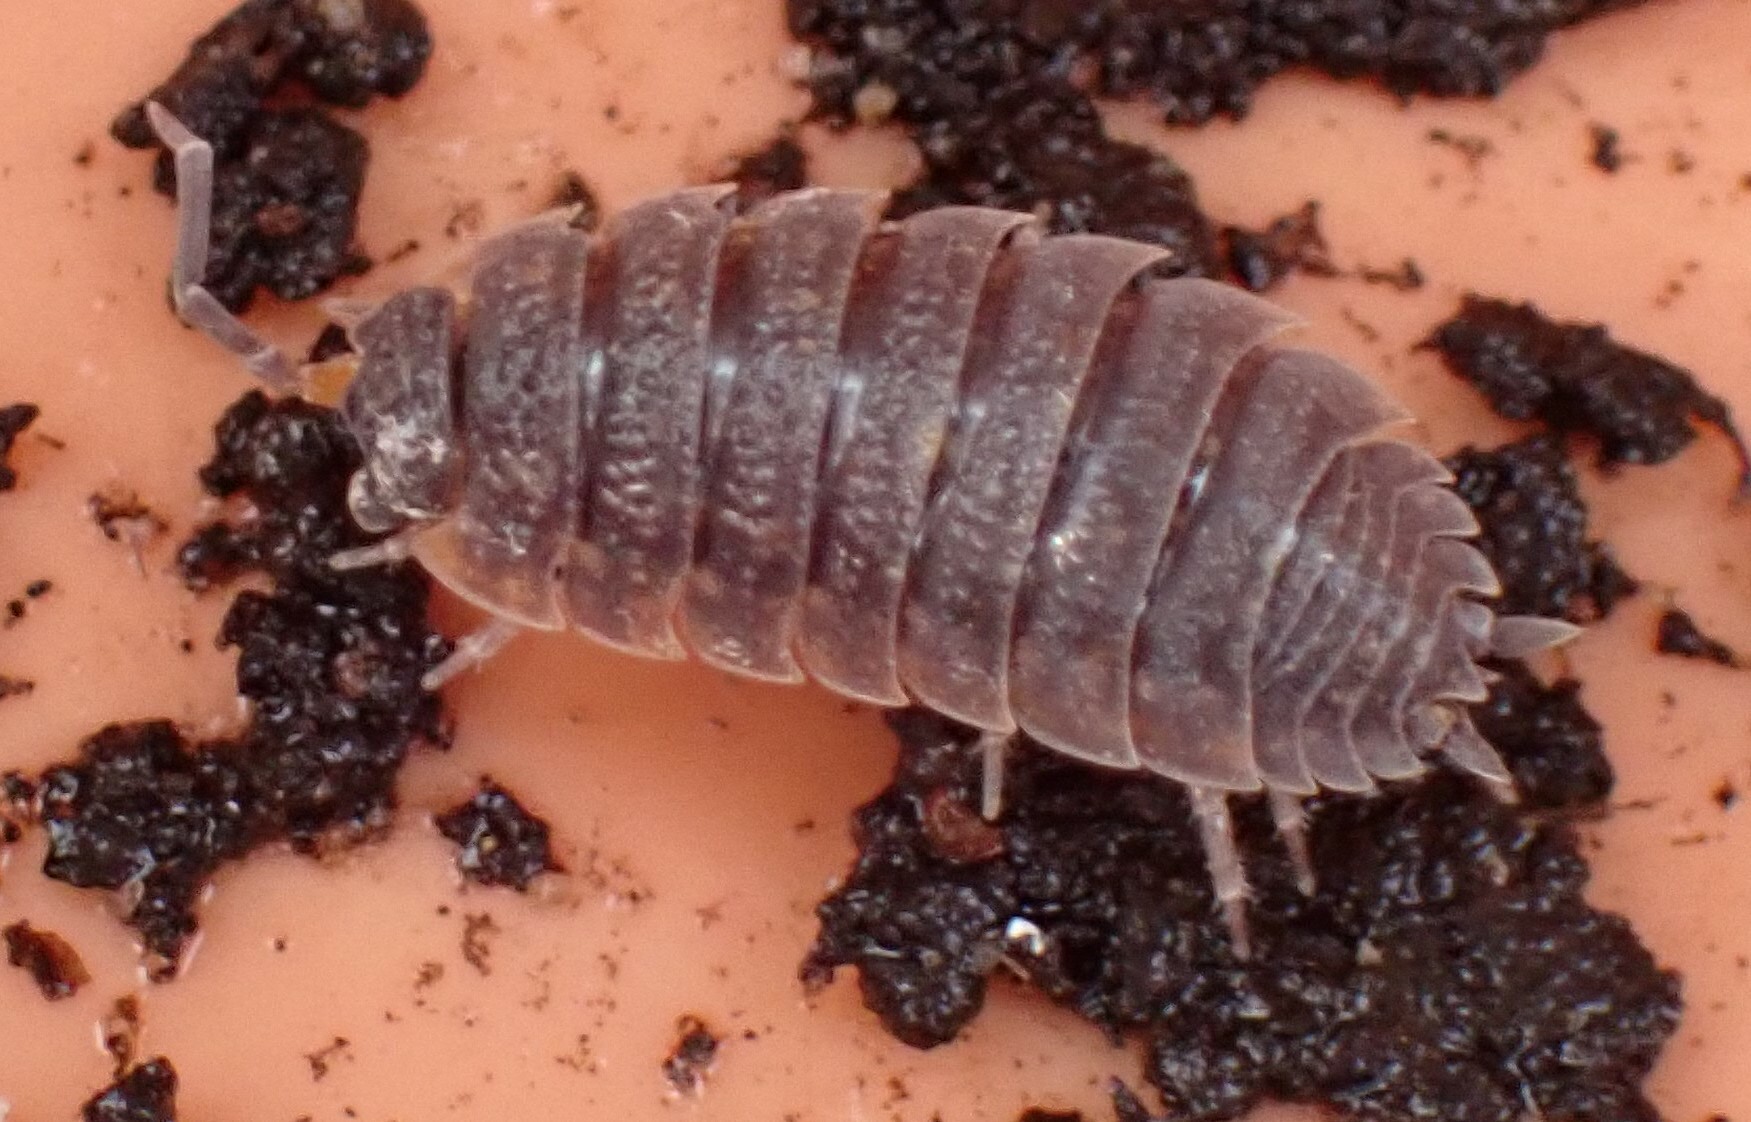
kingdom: Animalia
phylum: Arthropoda
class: Malacostraca
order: Isopoda
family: Porcellionidae
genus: Porcellio
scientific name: Porcellio scaber
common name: Common rough woodlouse
